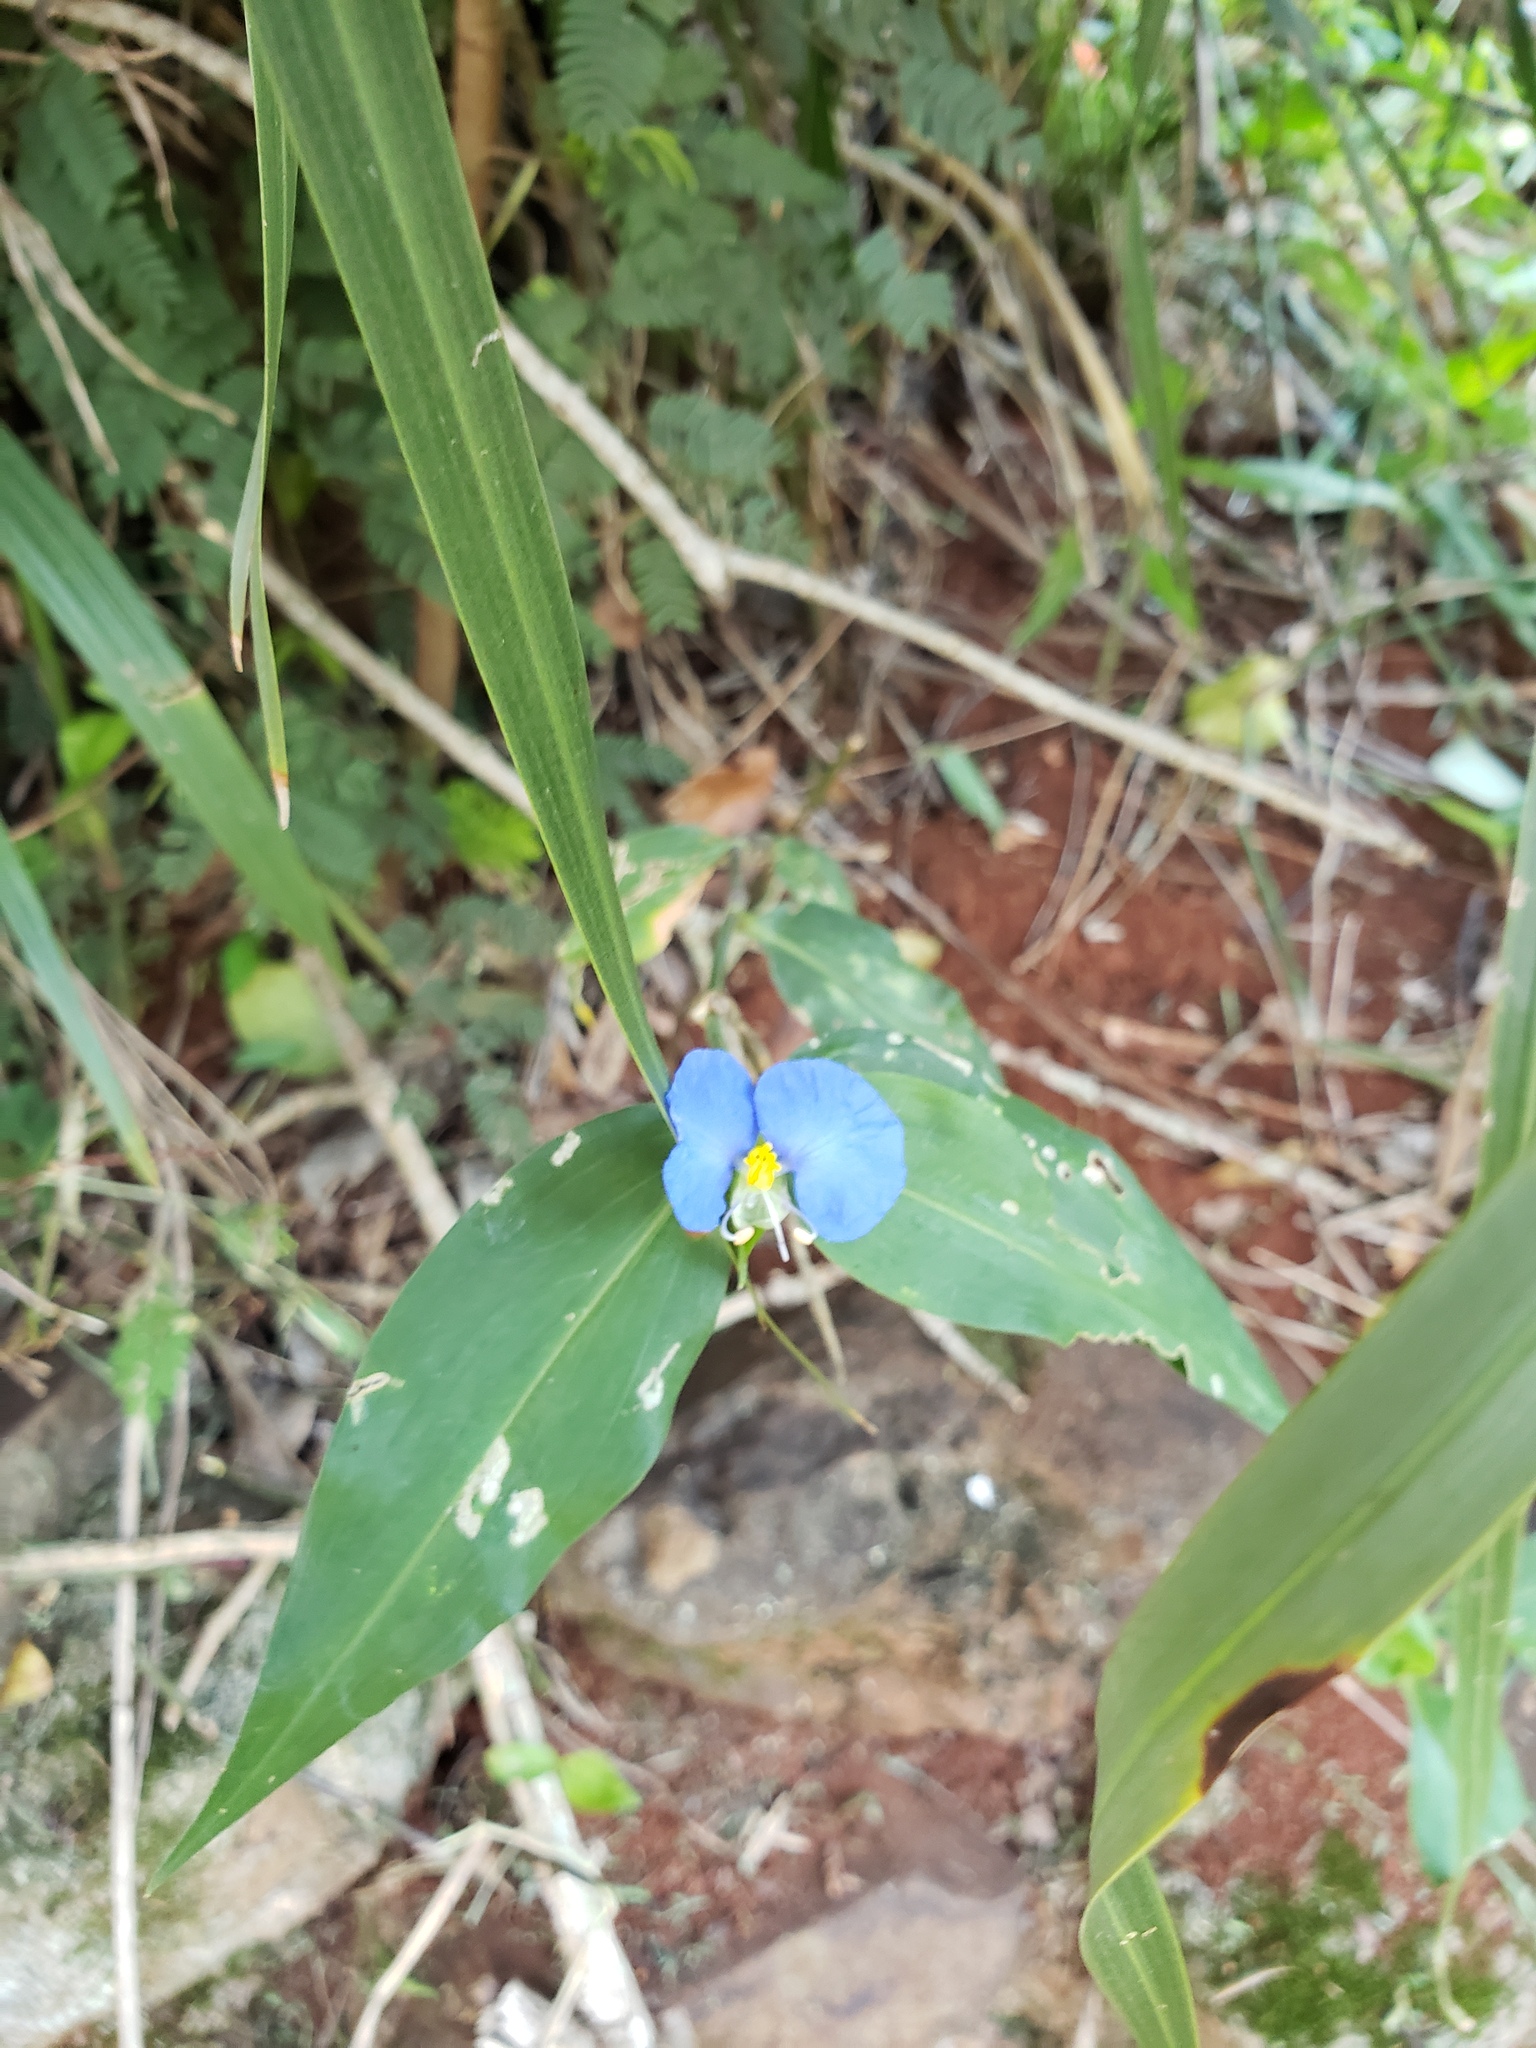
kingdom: Plantae
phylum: Tracheophyta
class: Liliopsida
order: Commelinales
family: Commelinaceae
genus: Commelina
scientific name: Commelina erecta
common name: Blousel blommetjie
